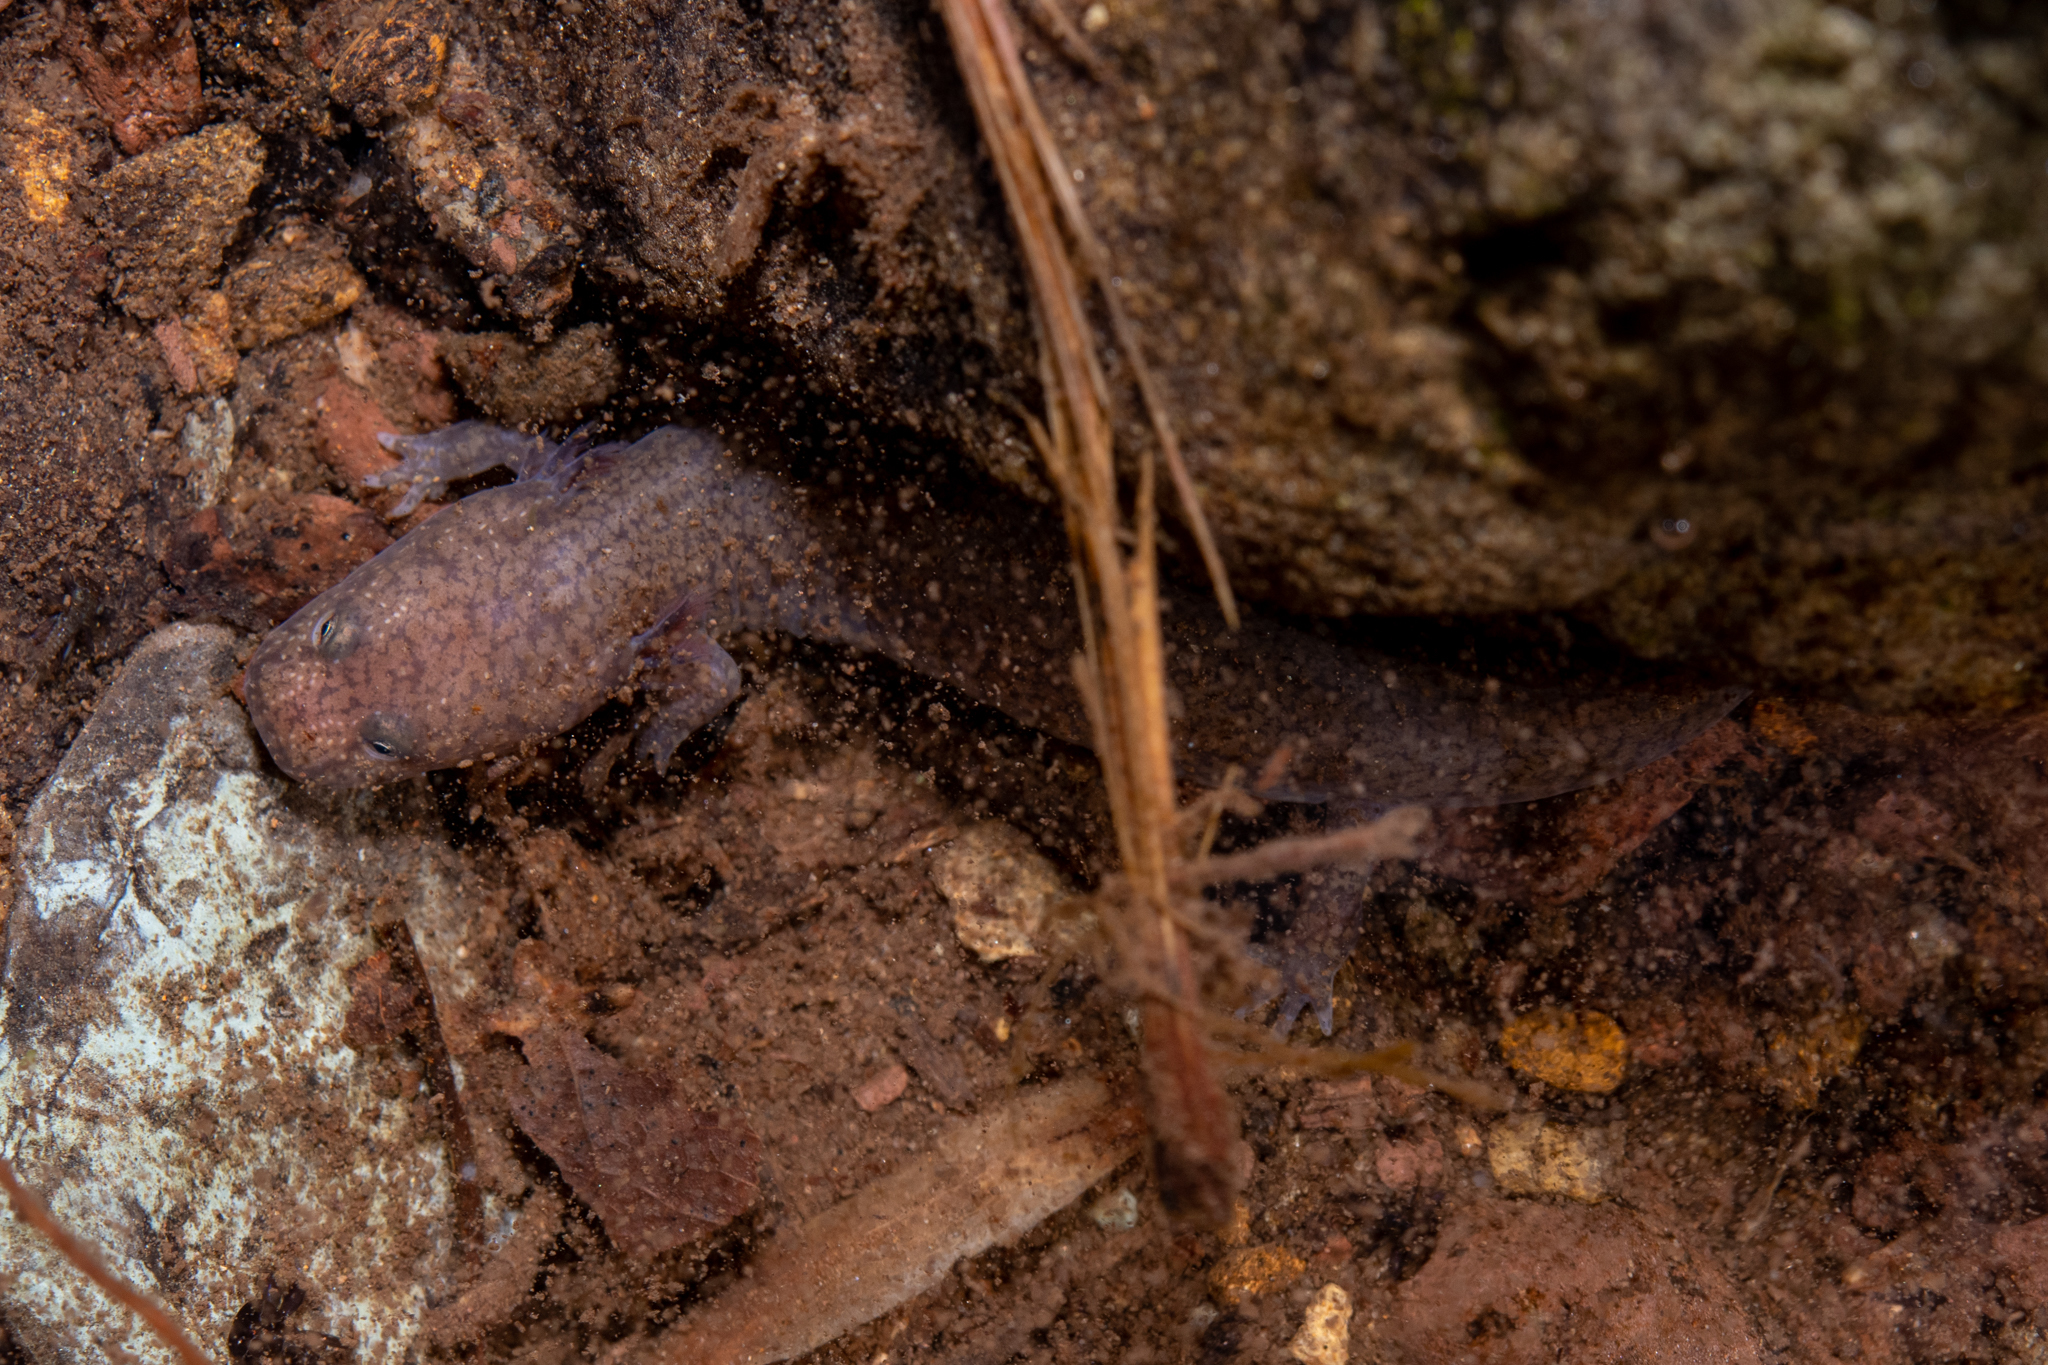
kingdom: Animalia
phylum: Chordata
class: Amphibia
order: Caudata
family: Plethodontidae
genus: Gyrinophilus
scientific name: Gyrinophilus porphyriticus
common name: Spring salamander
